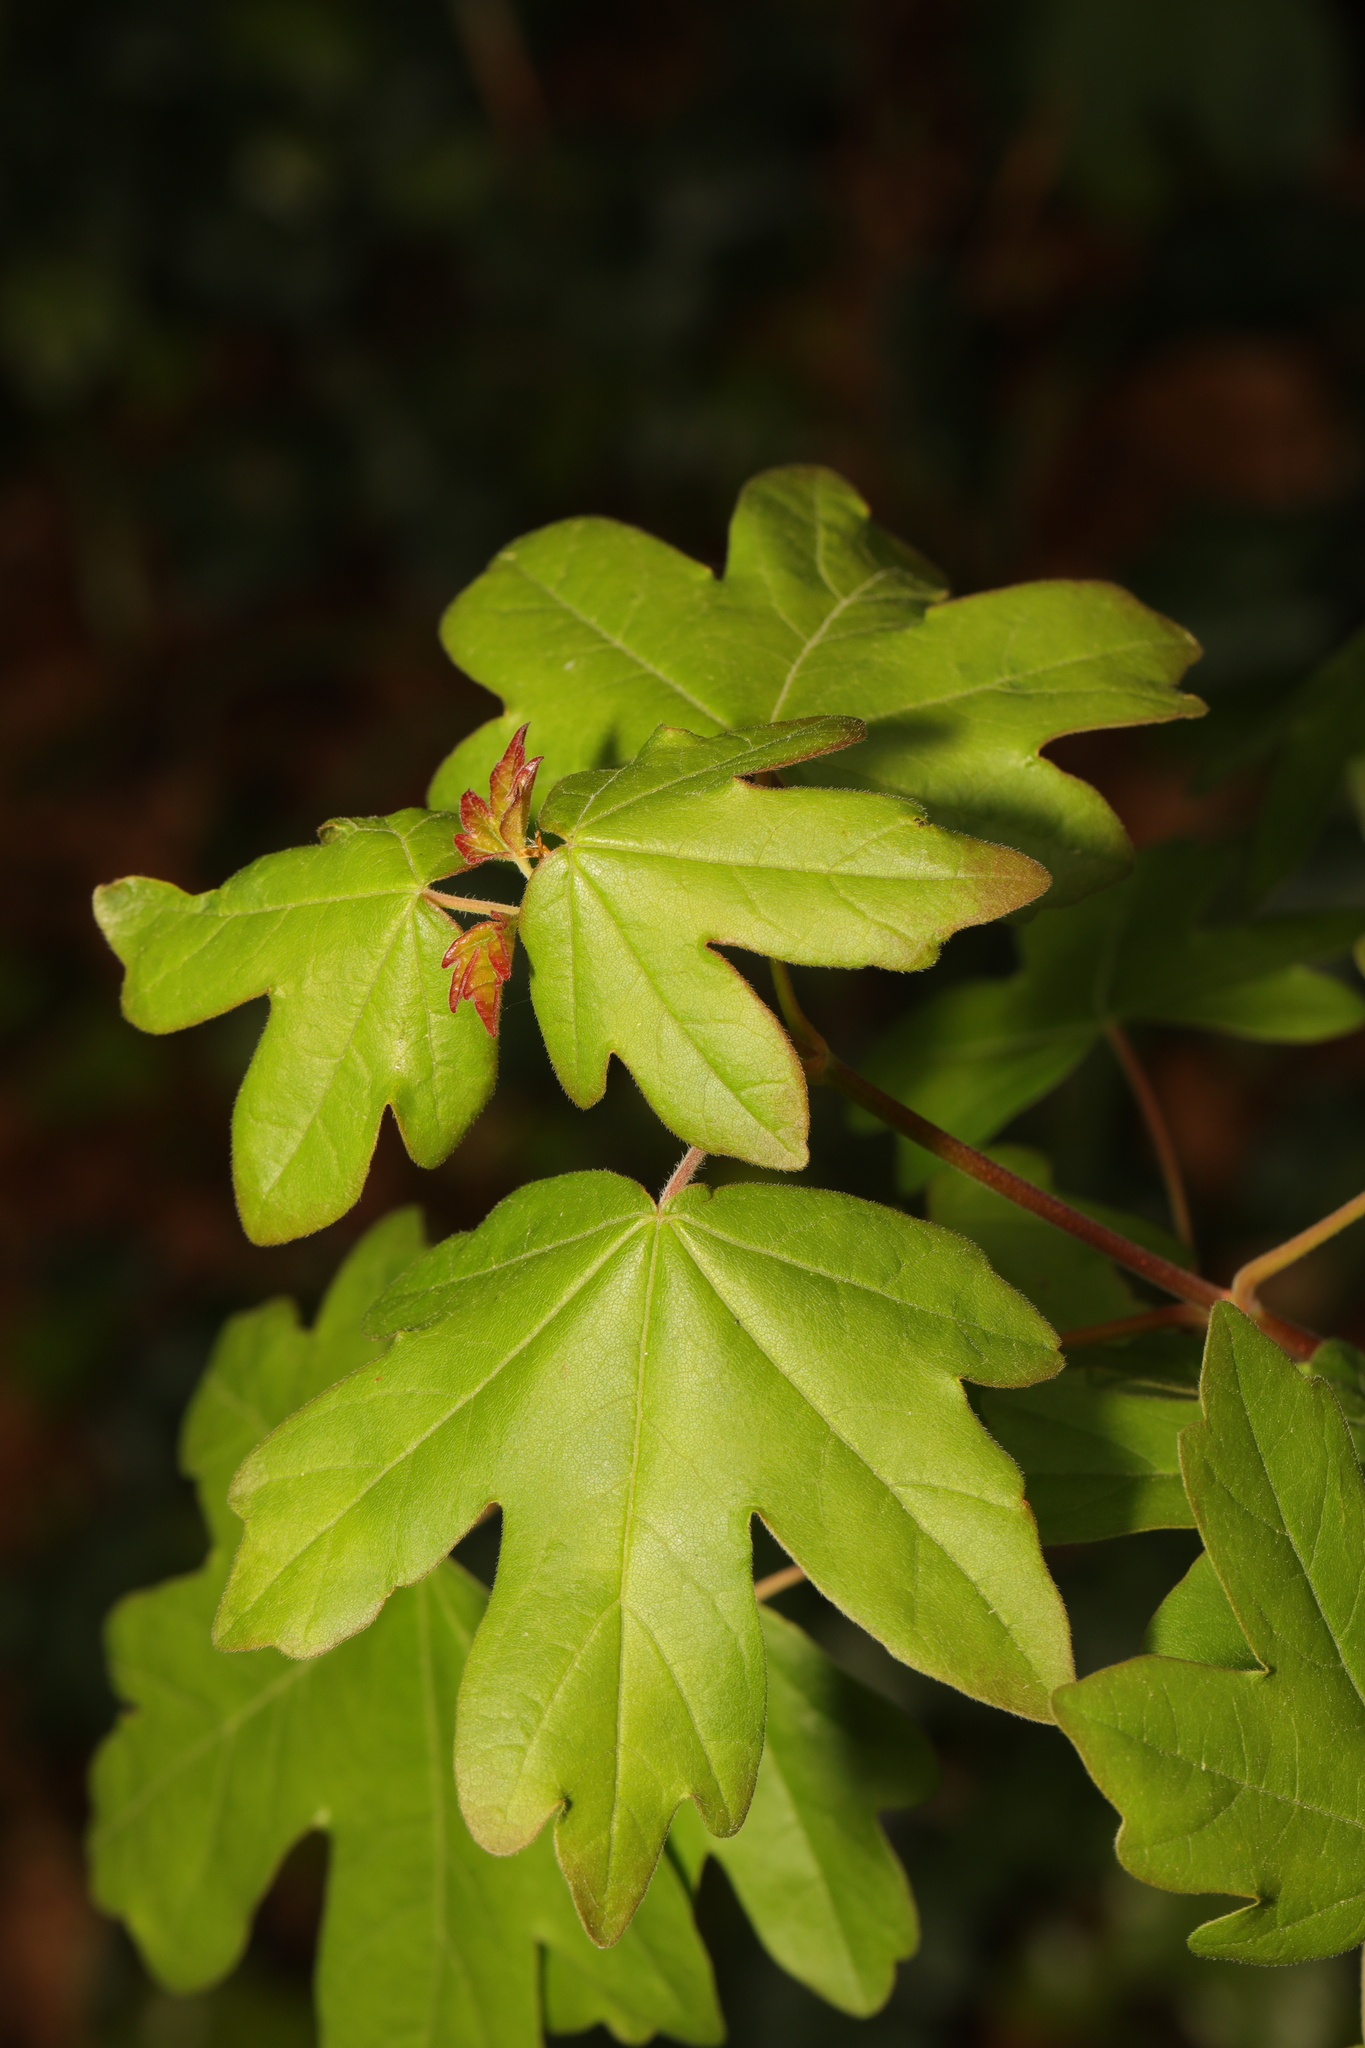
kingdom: Plantae
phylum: Tracheophyta
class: Magnoliopsida
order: Sapindales
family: Sapindaceae
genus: Acer
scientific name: Acer campestre
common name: Field maple
